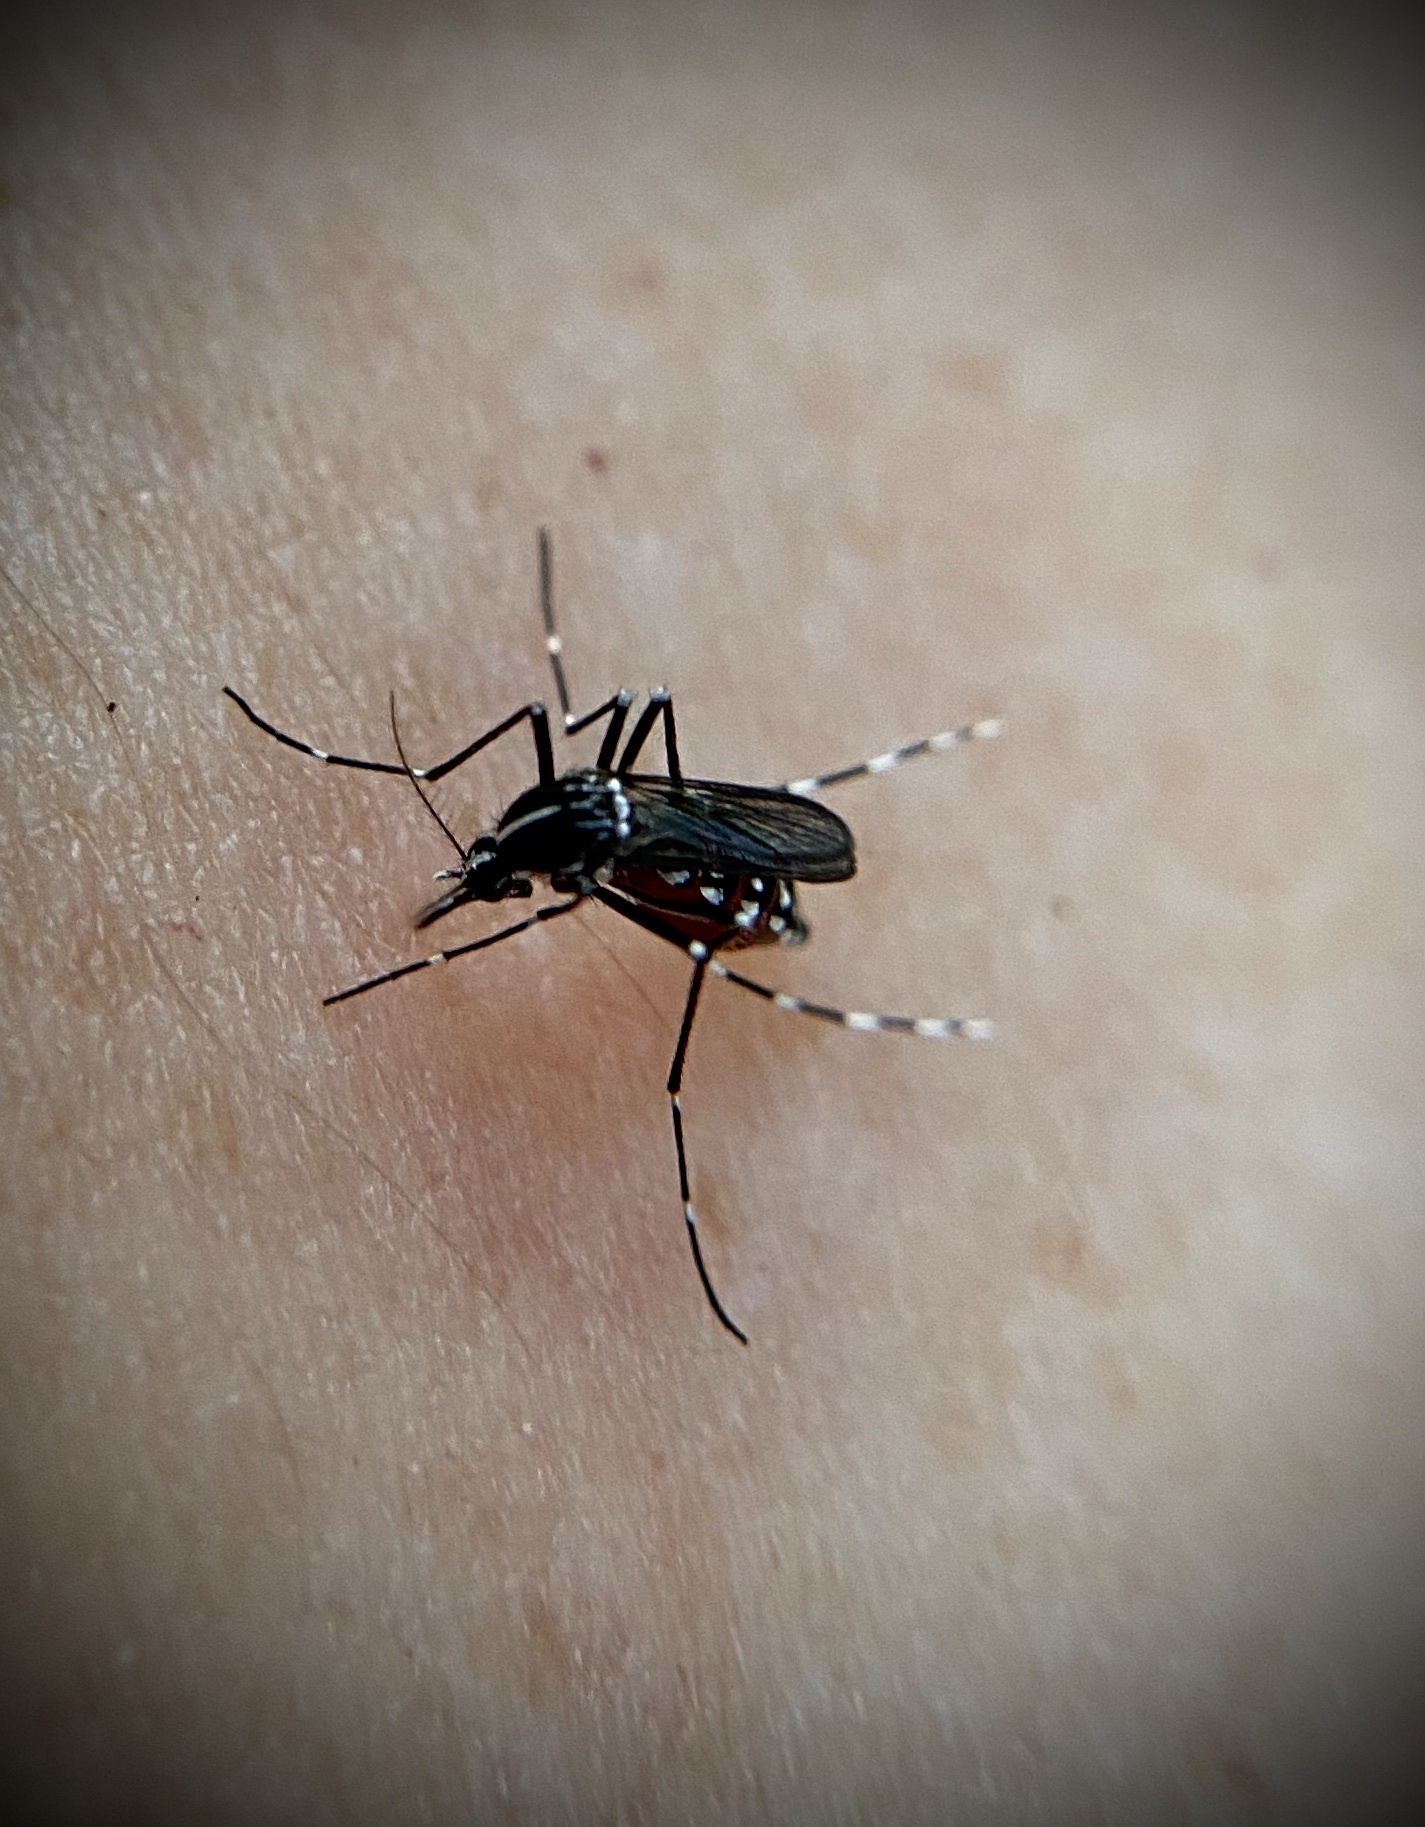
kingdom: Animalia
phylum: Arthropoda
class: Insecta
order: Diptera
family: Culicidae
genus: Aedes
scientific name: Aedes albopictus
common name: Tiger mosquito
